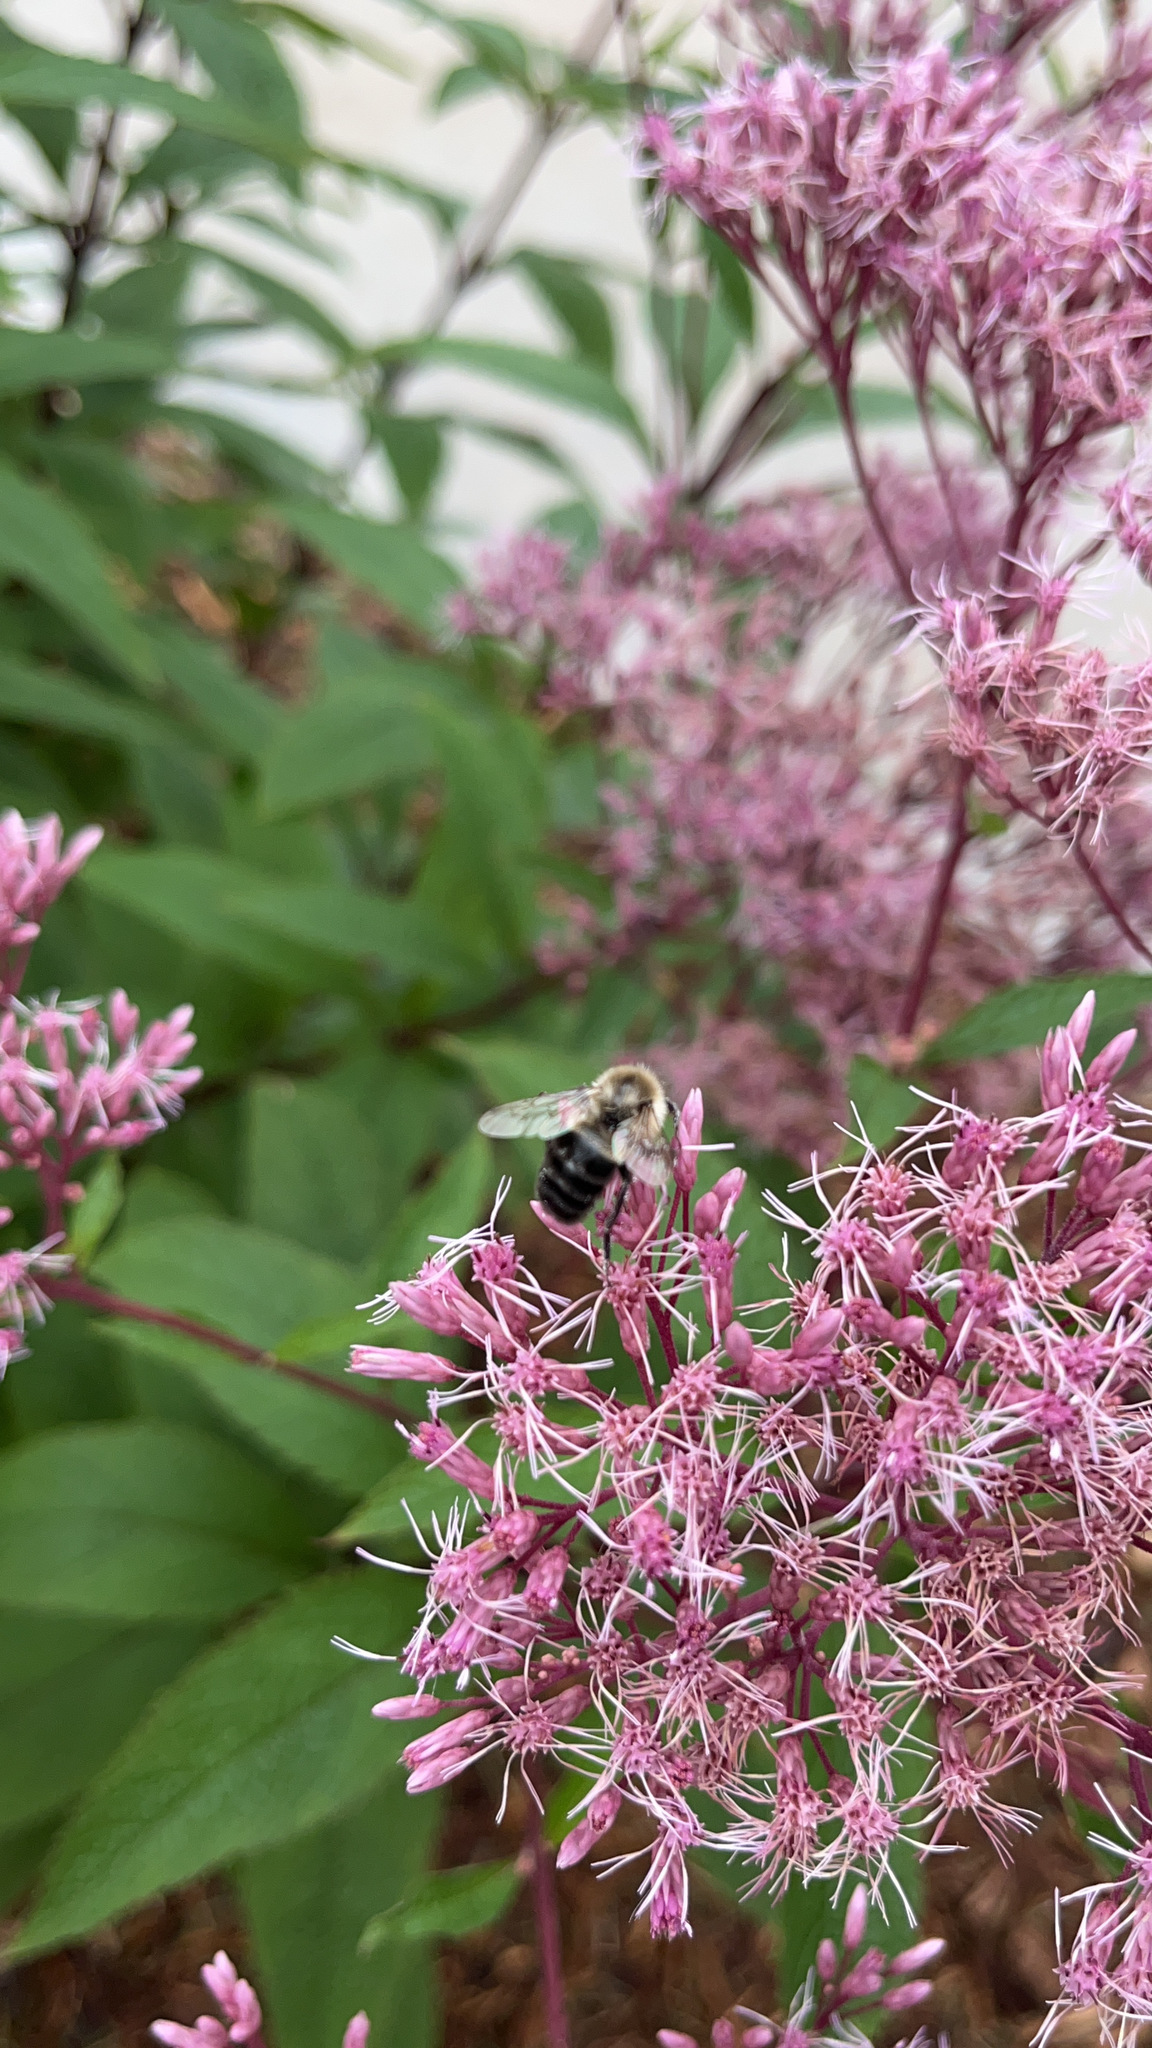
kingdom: Animalia
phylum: Arthropoda
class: Insecta
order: Hymenoptera
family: Apidae
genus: Bombus
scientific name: Bombus impatiens
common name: Common eastern bumble bee
